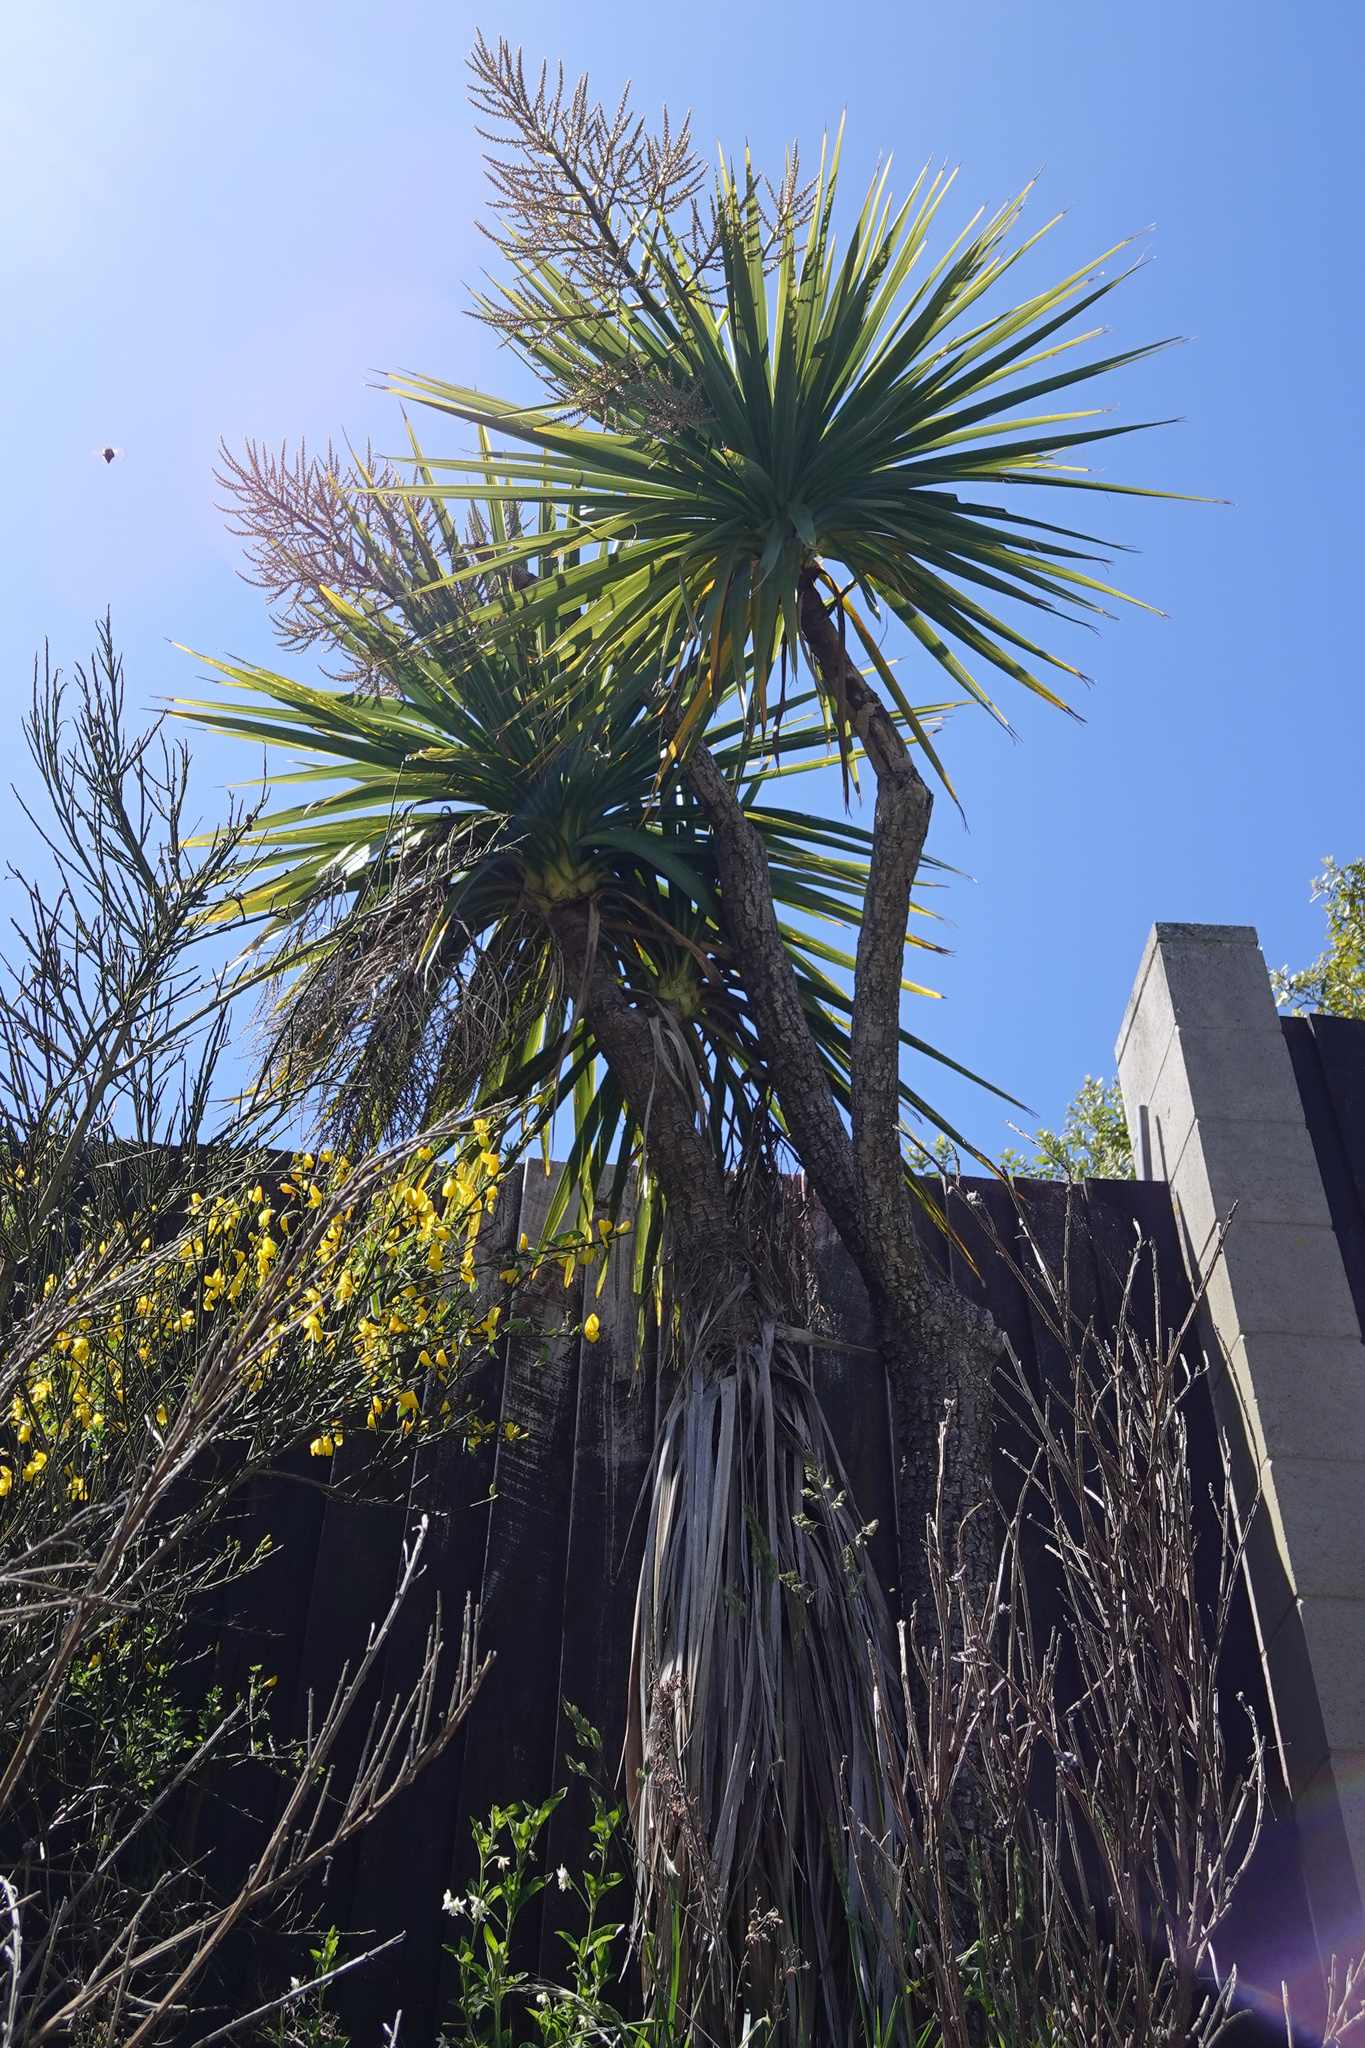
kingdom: Plantae
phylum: Tracheophyta
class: Liliopsida
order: Asparagales
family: Asparagaceae
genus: Cordyline
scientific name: Cordyline australis
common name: Cabbage-palm
